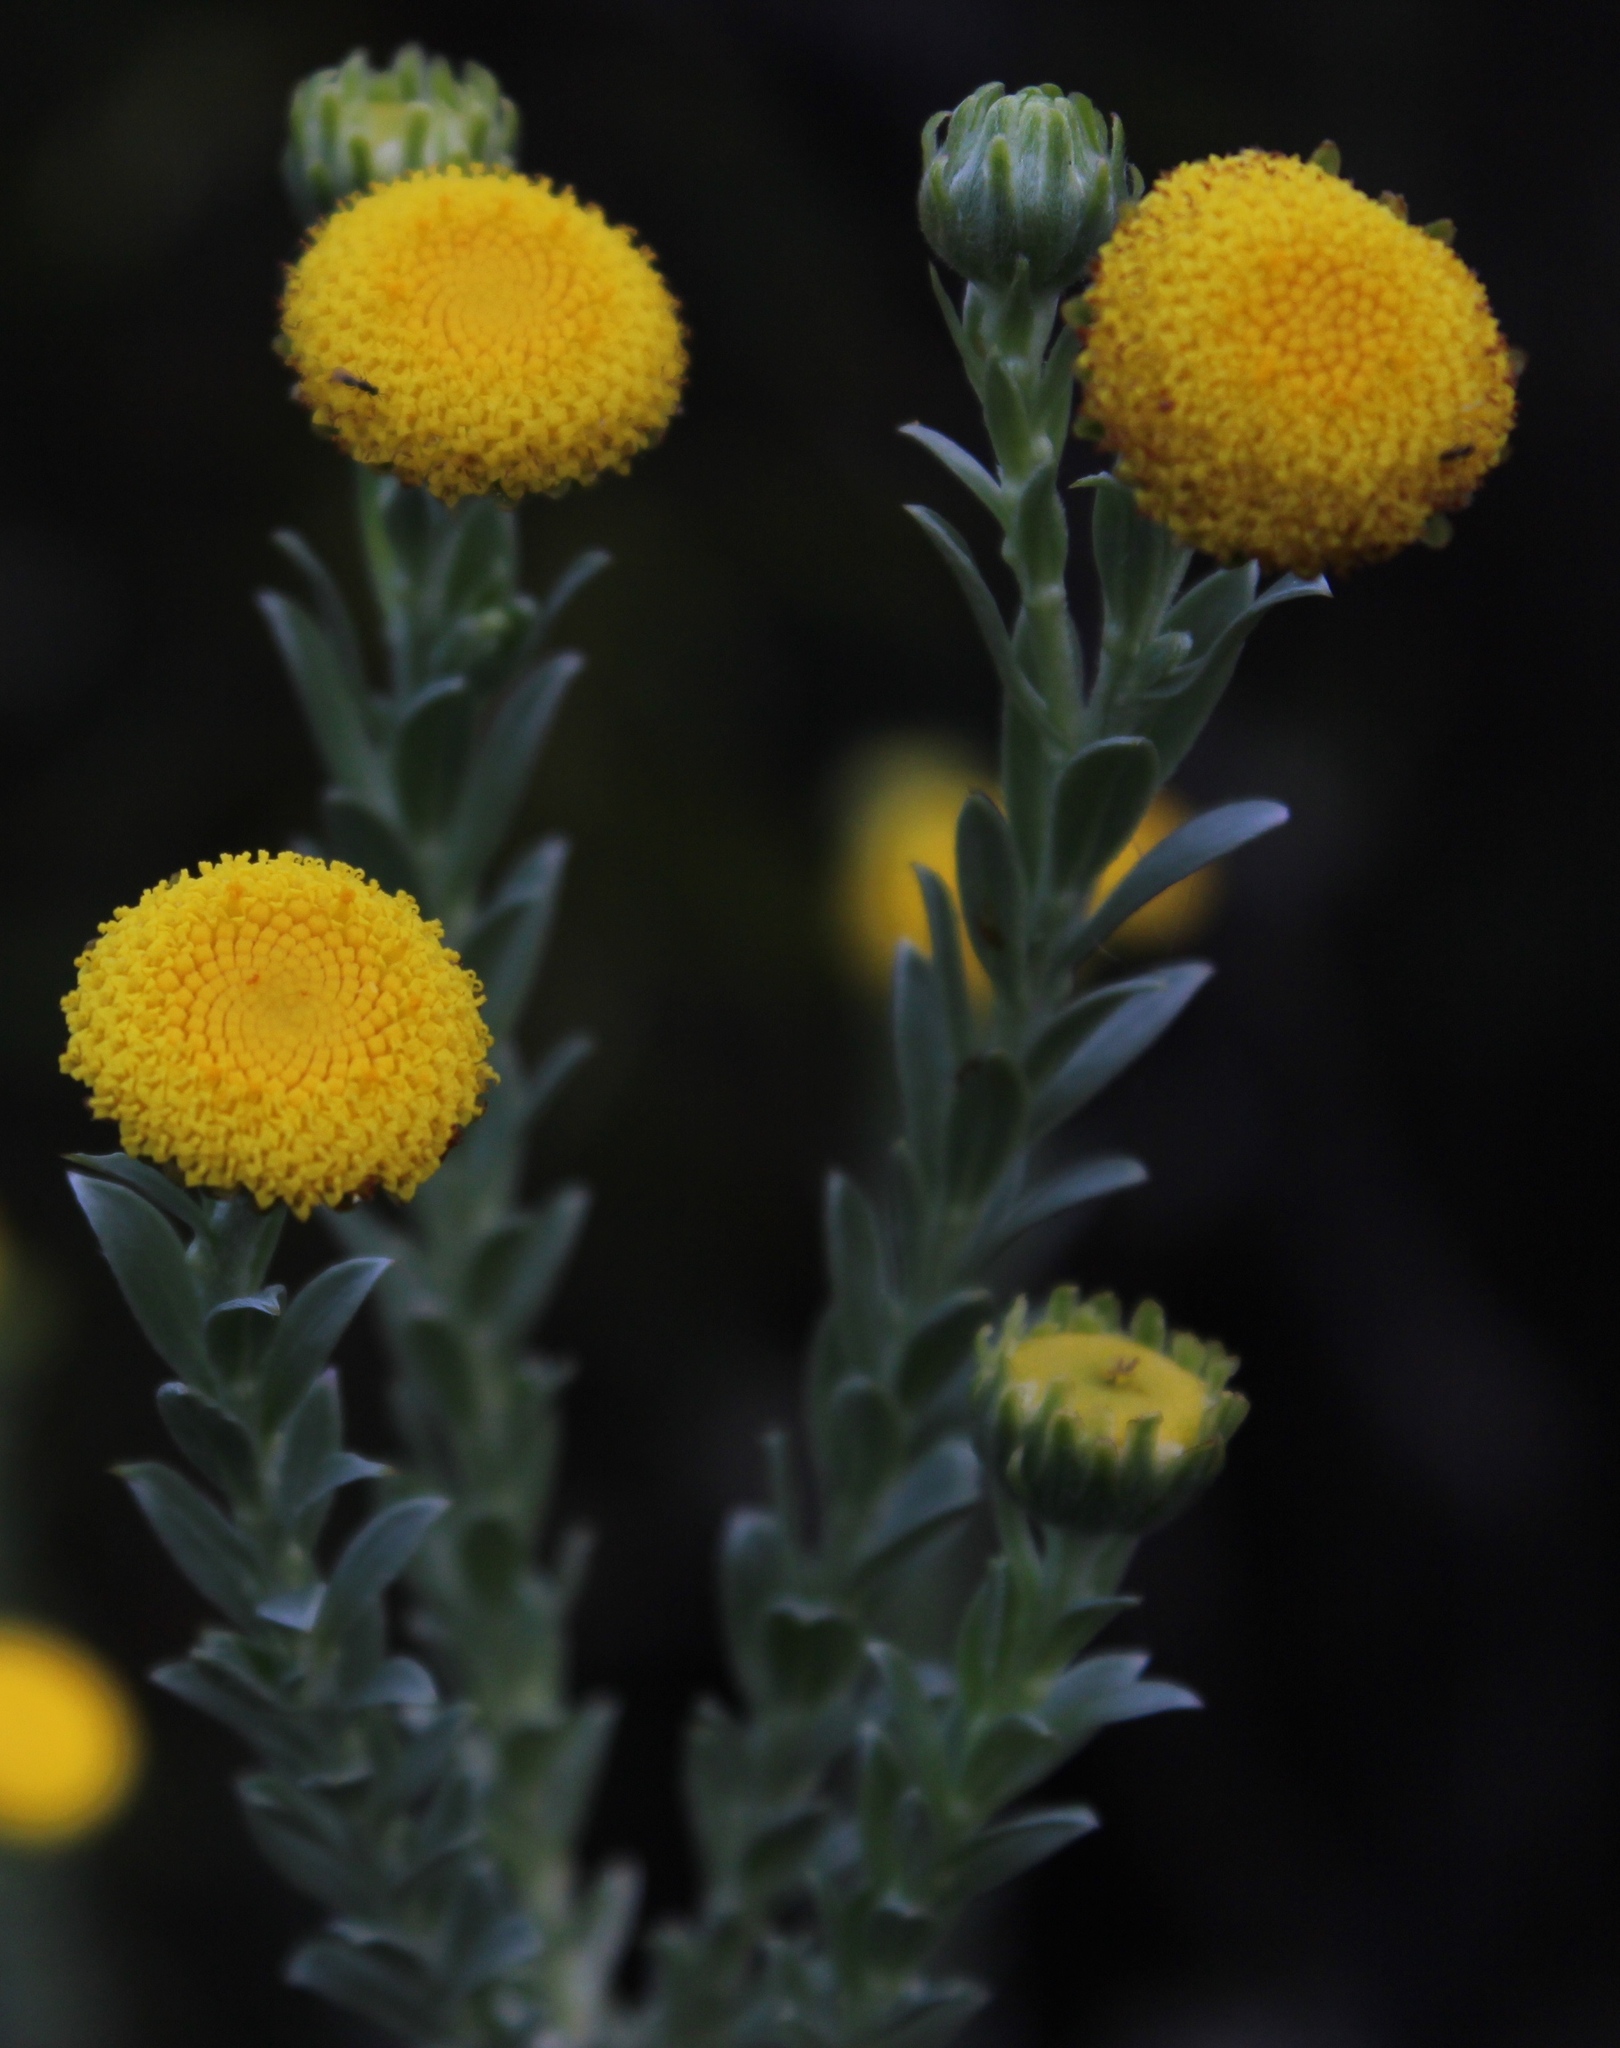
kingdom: Plantae
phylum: Tracheophyta
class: Magnoliopsida
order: Asterales
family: Asteraceae
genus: Schistostephium
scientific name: Schistostephium umbellatum
